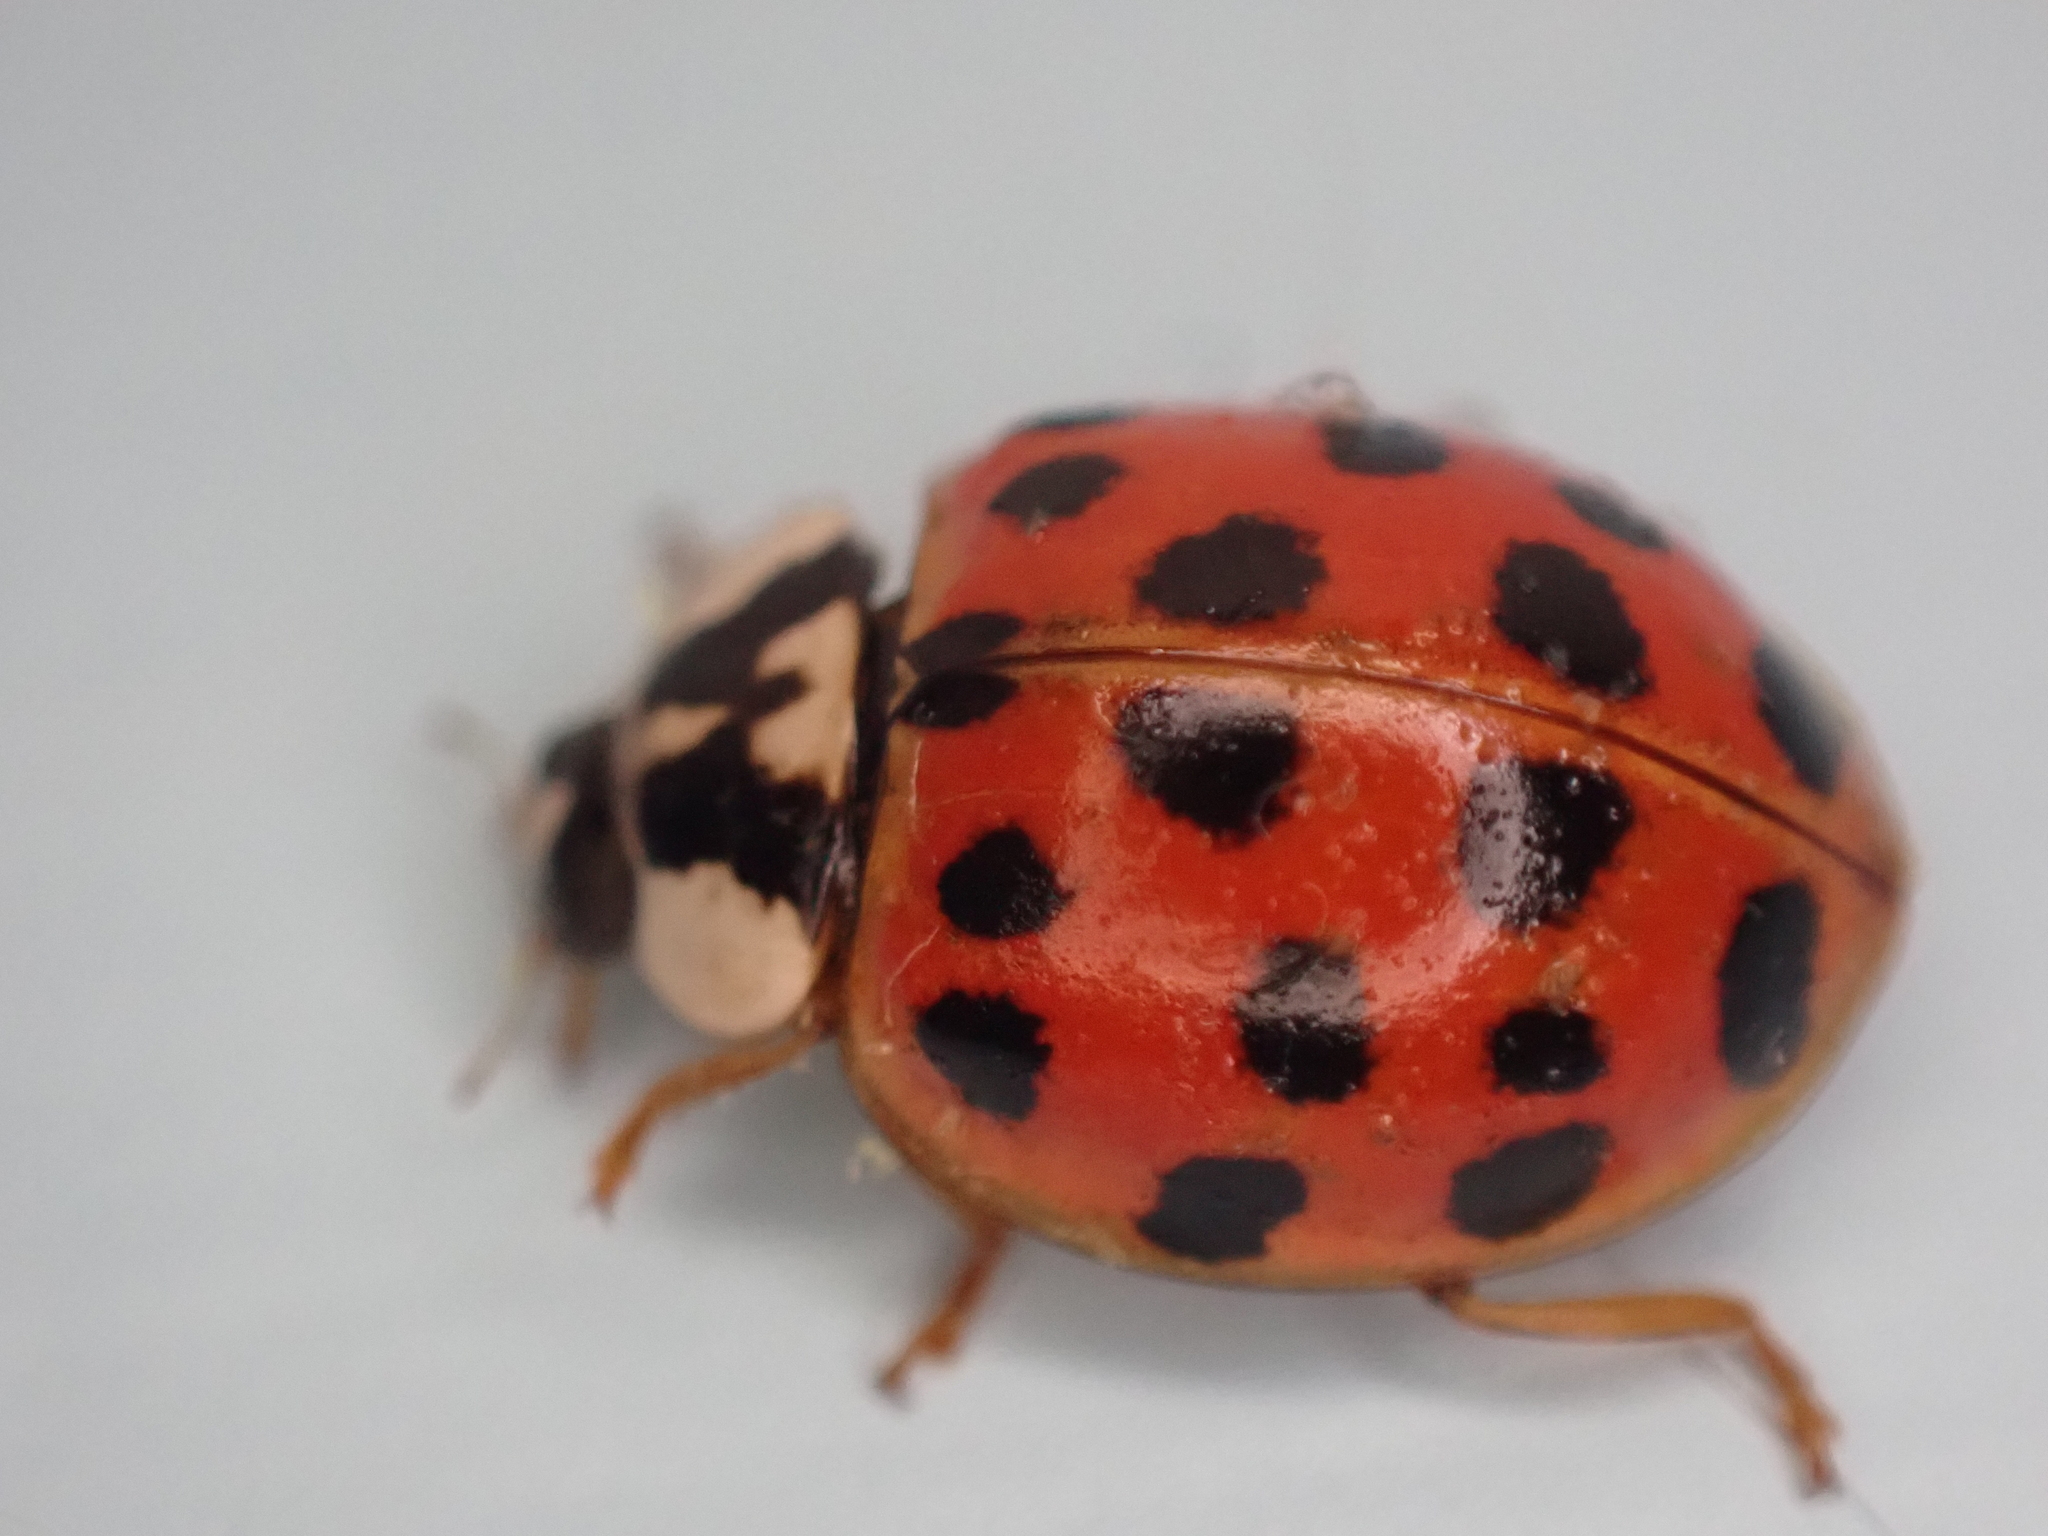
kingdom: Animalia
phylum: Arthropoda
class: Insecta
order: Coleoptera
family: Coccinellidae
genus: Harmonia
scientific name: Harmonia axyridis
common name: Harlequin ladybird
